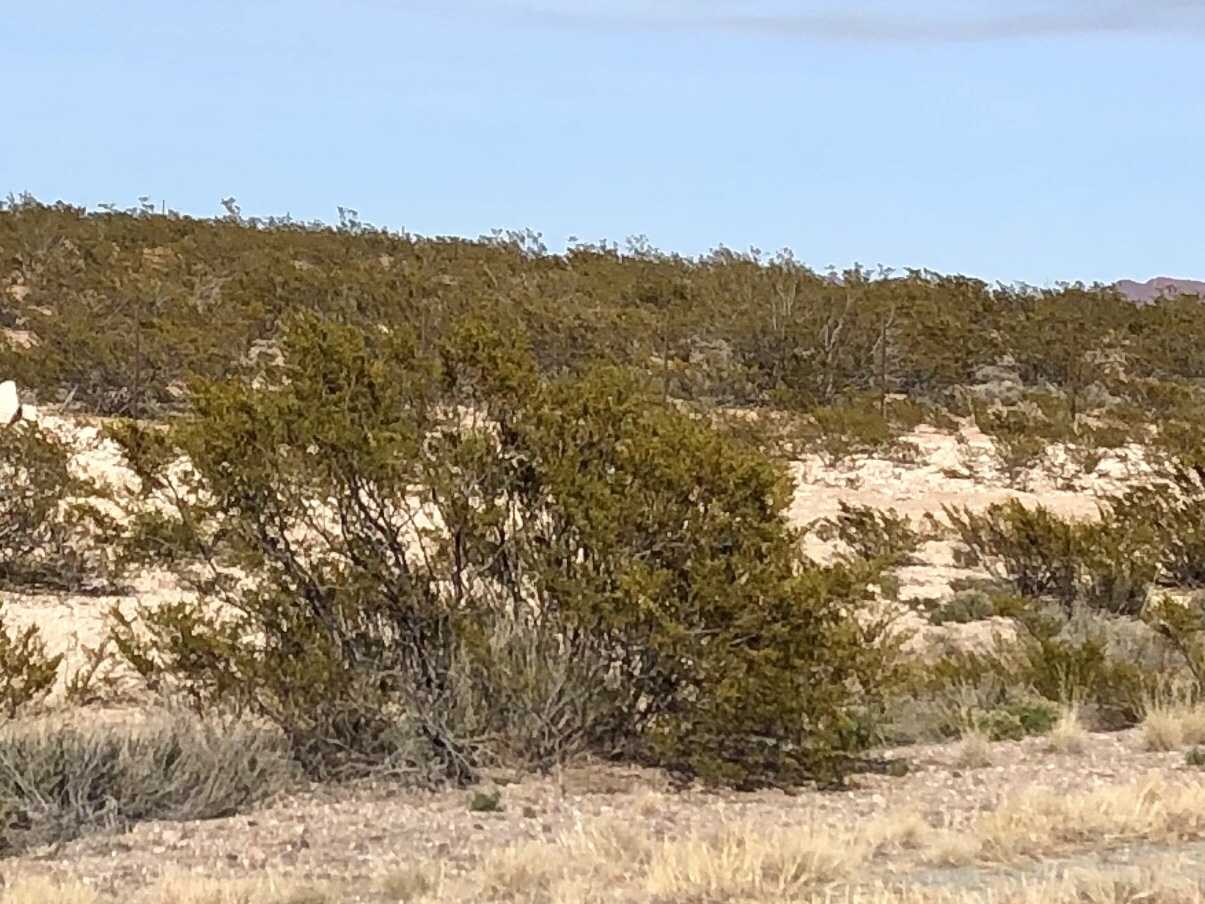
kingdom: Plantae
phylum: Tracheophyta
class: Magnoliopsida
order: Zygophyllales
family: Zygophyllaceae
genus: Larrea
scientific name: Larrea tridentata
